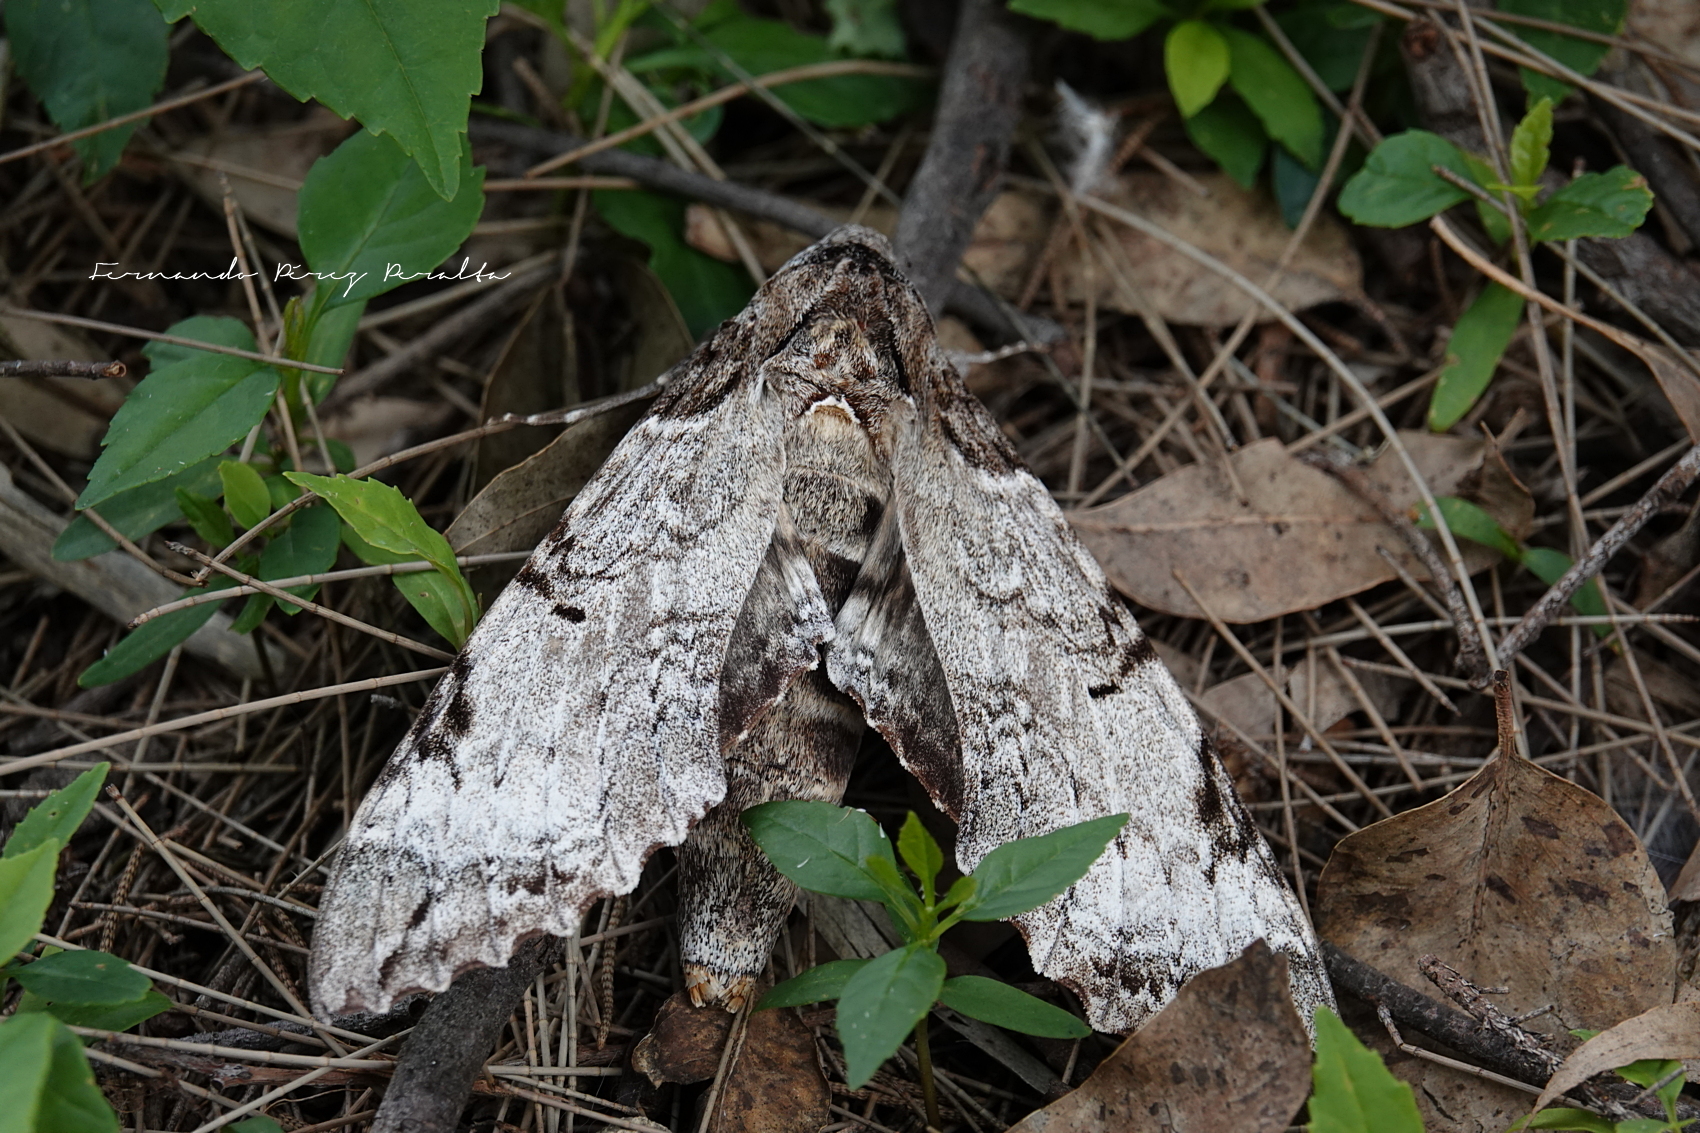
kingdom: Animalia
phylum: Arthropoda
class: Insecta
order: Lepidoptera
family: Sphingidae
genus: Pseudosphinx
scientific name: Pseudosphinx tetrio
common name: Tetrio sphinx
